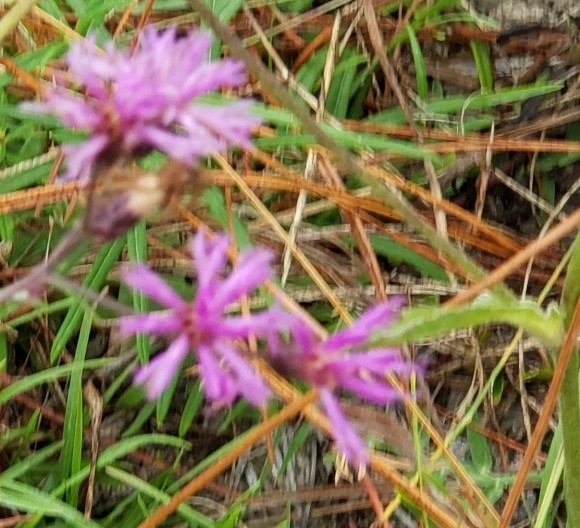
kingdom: Plantae
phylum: Tracheophyta
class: Magnoliopsida
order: Asterales
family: Asteraceae
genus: Vernonia
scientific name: Vernonia angustifolia
